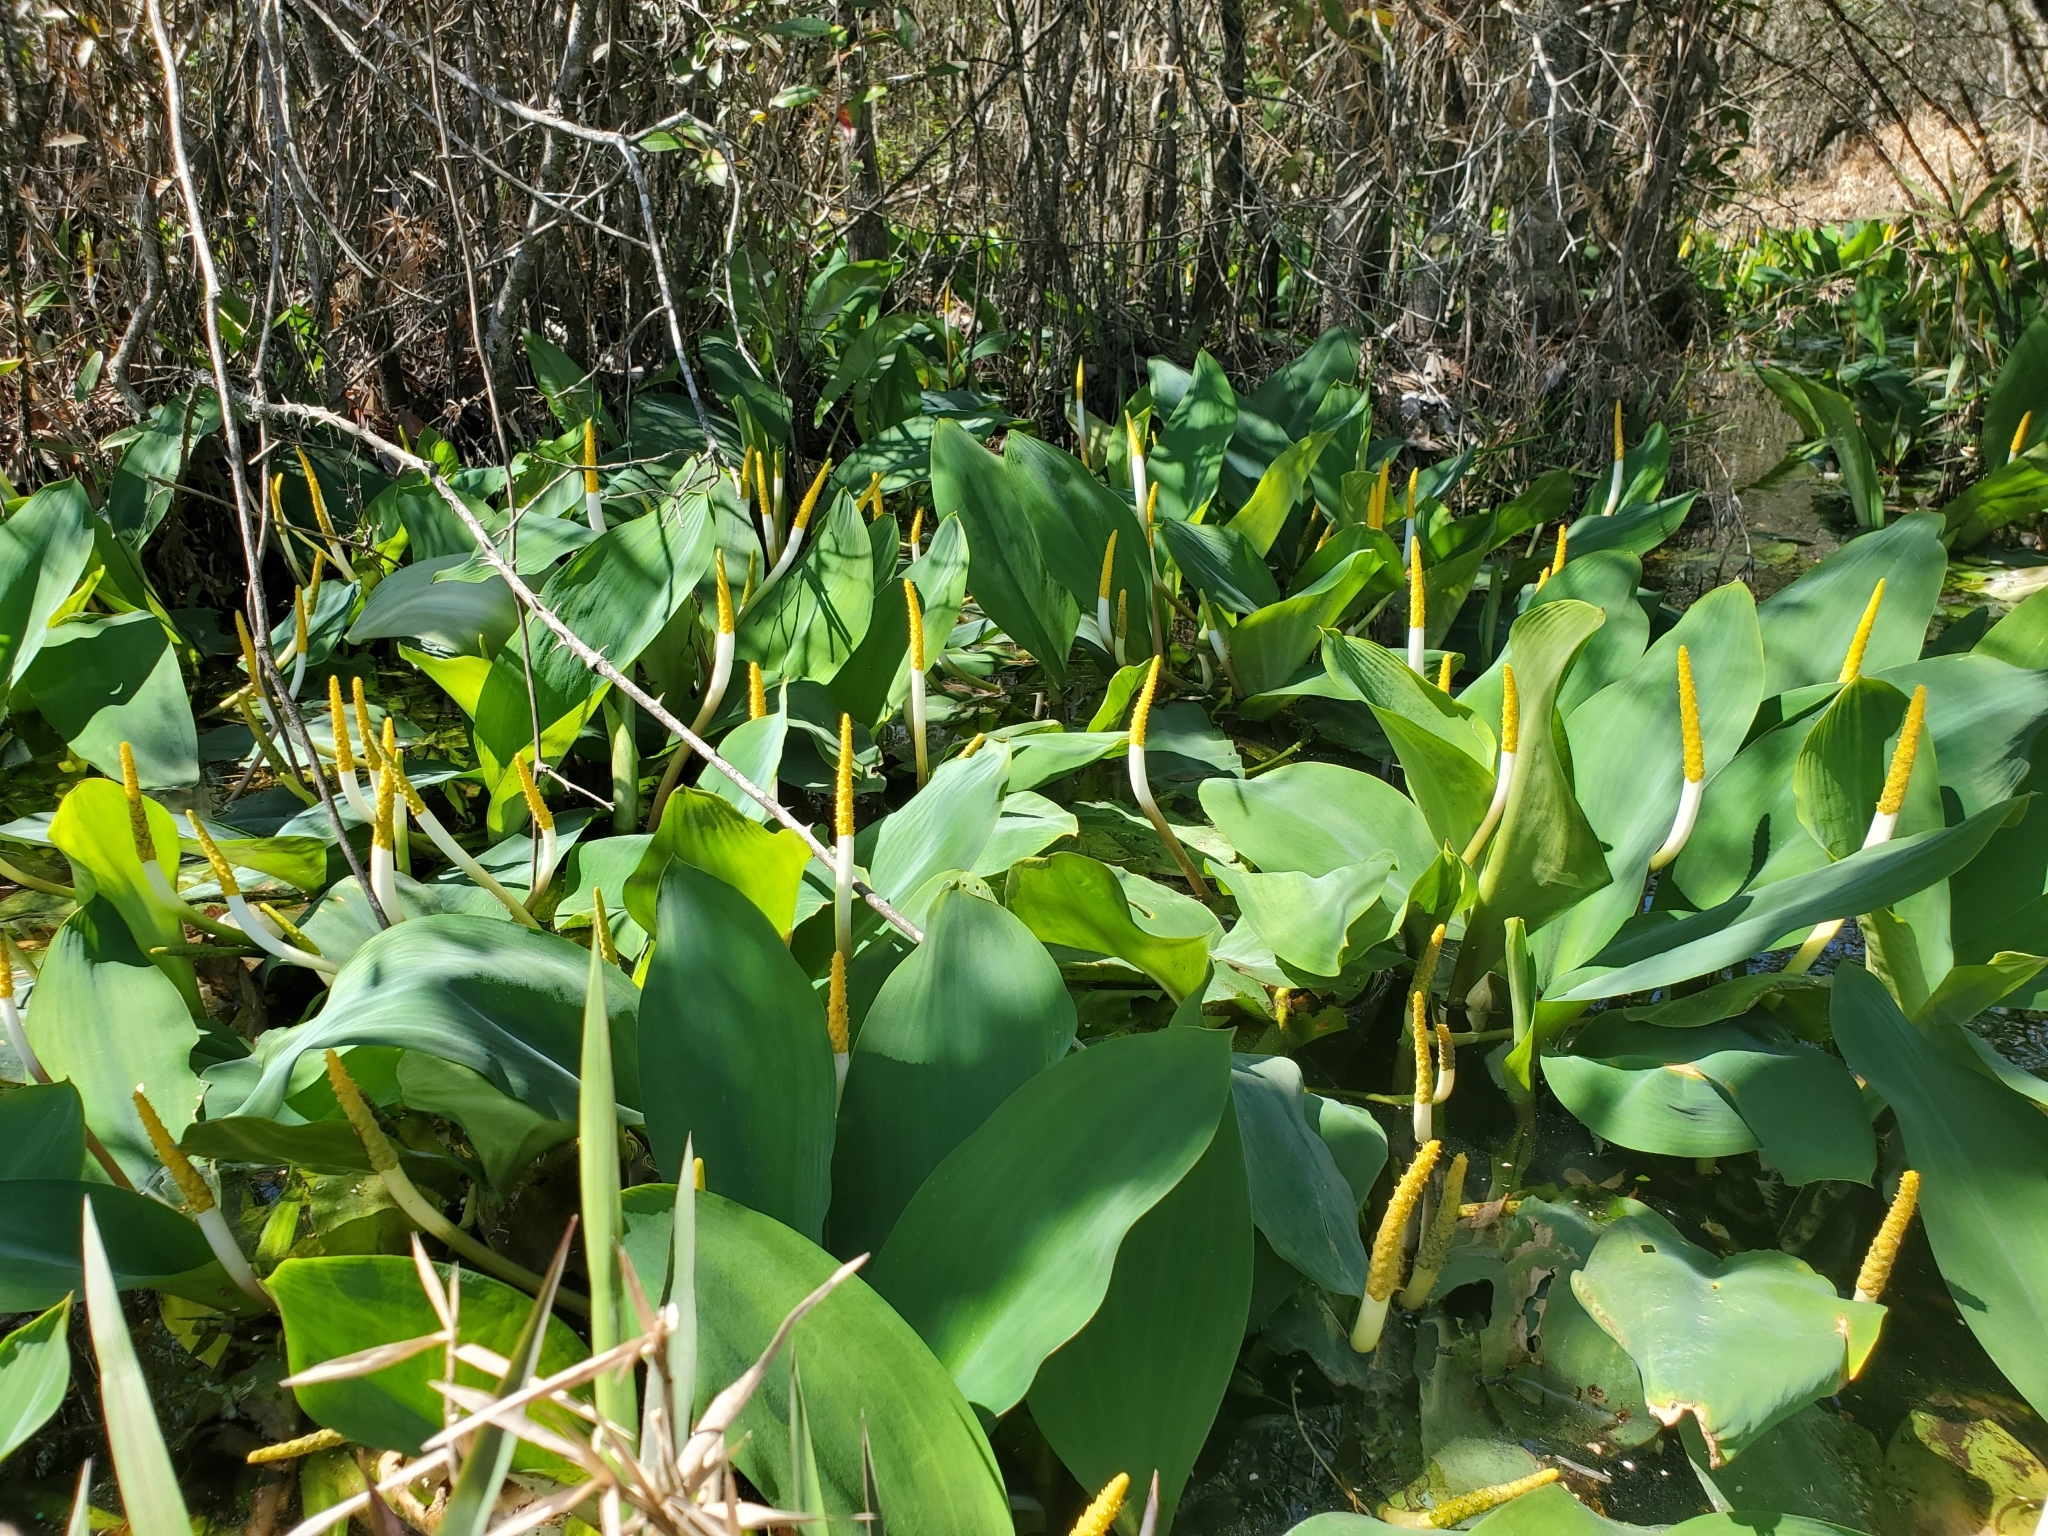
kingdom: Plantae
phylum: Tracheophyta
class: Liliopsida
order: Alismatales
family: Araceae
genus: Orontium
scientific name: Orontium aquaticum
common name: Golden-club
